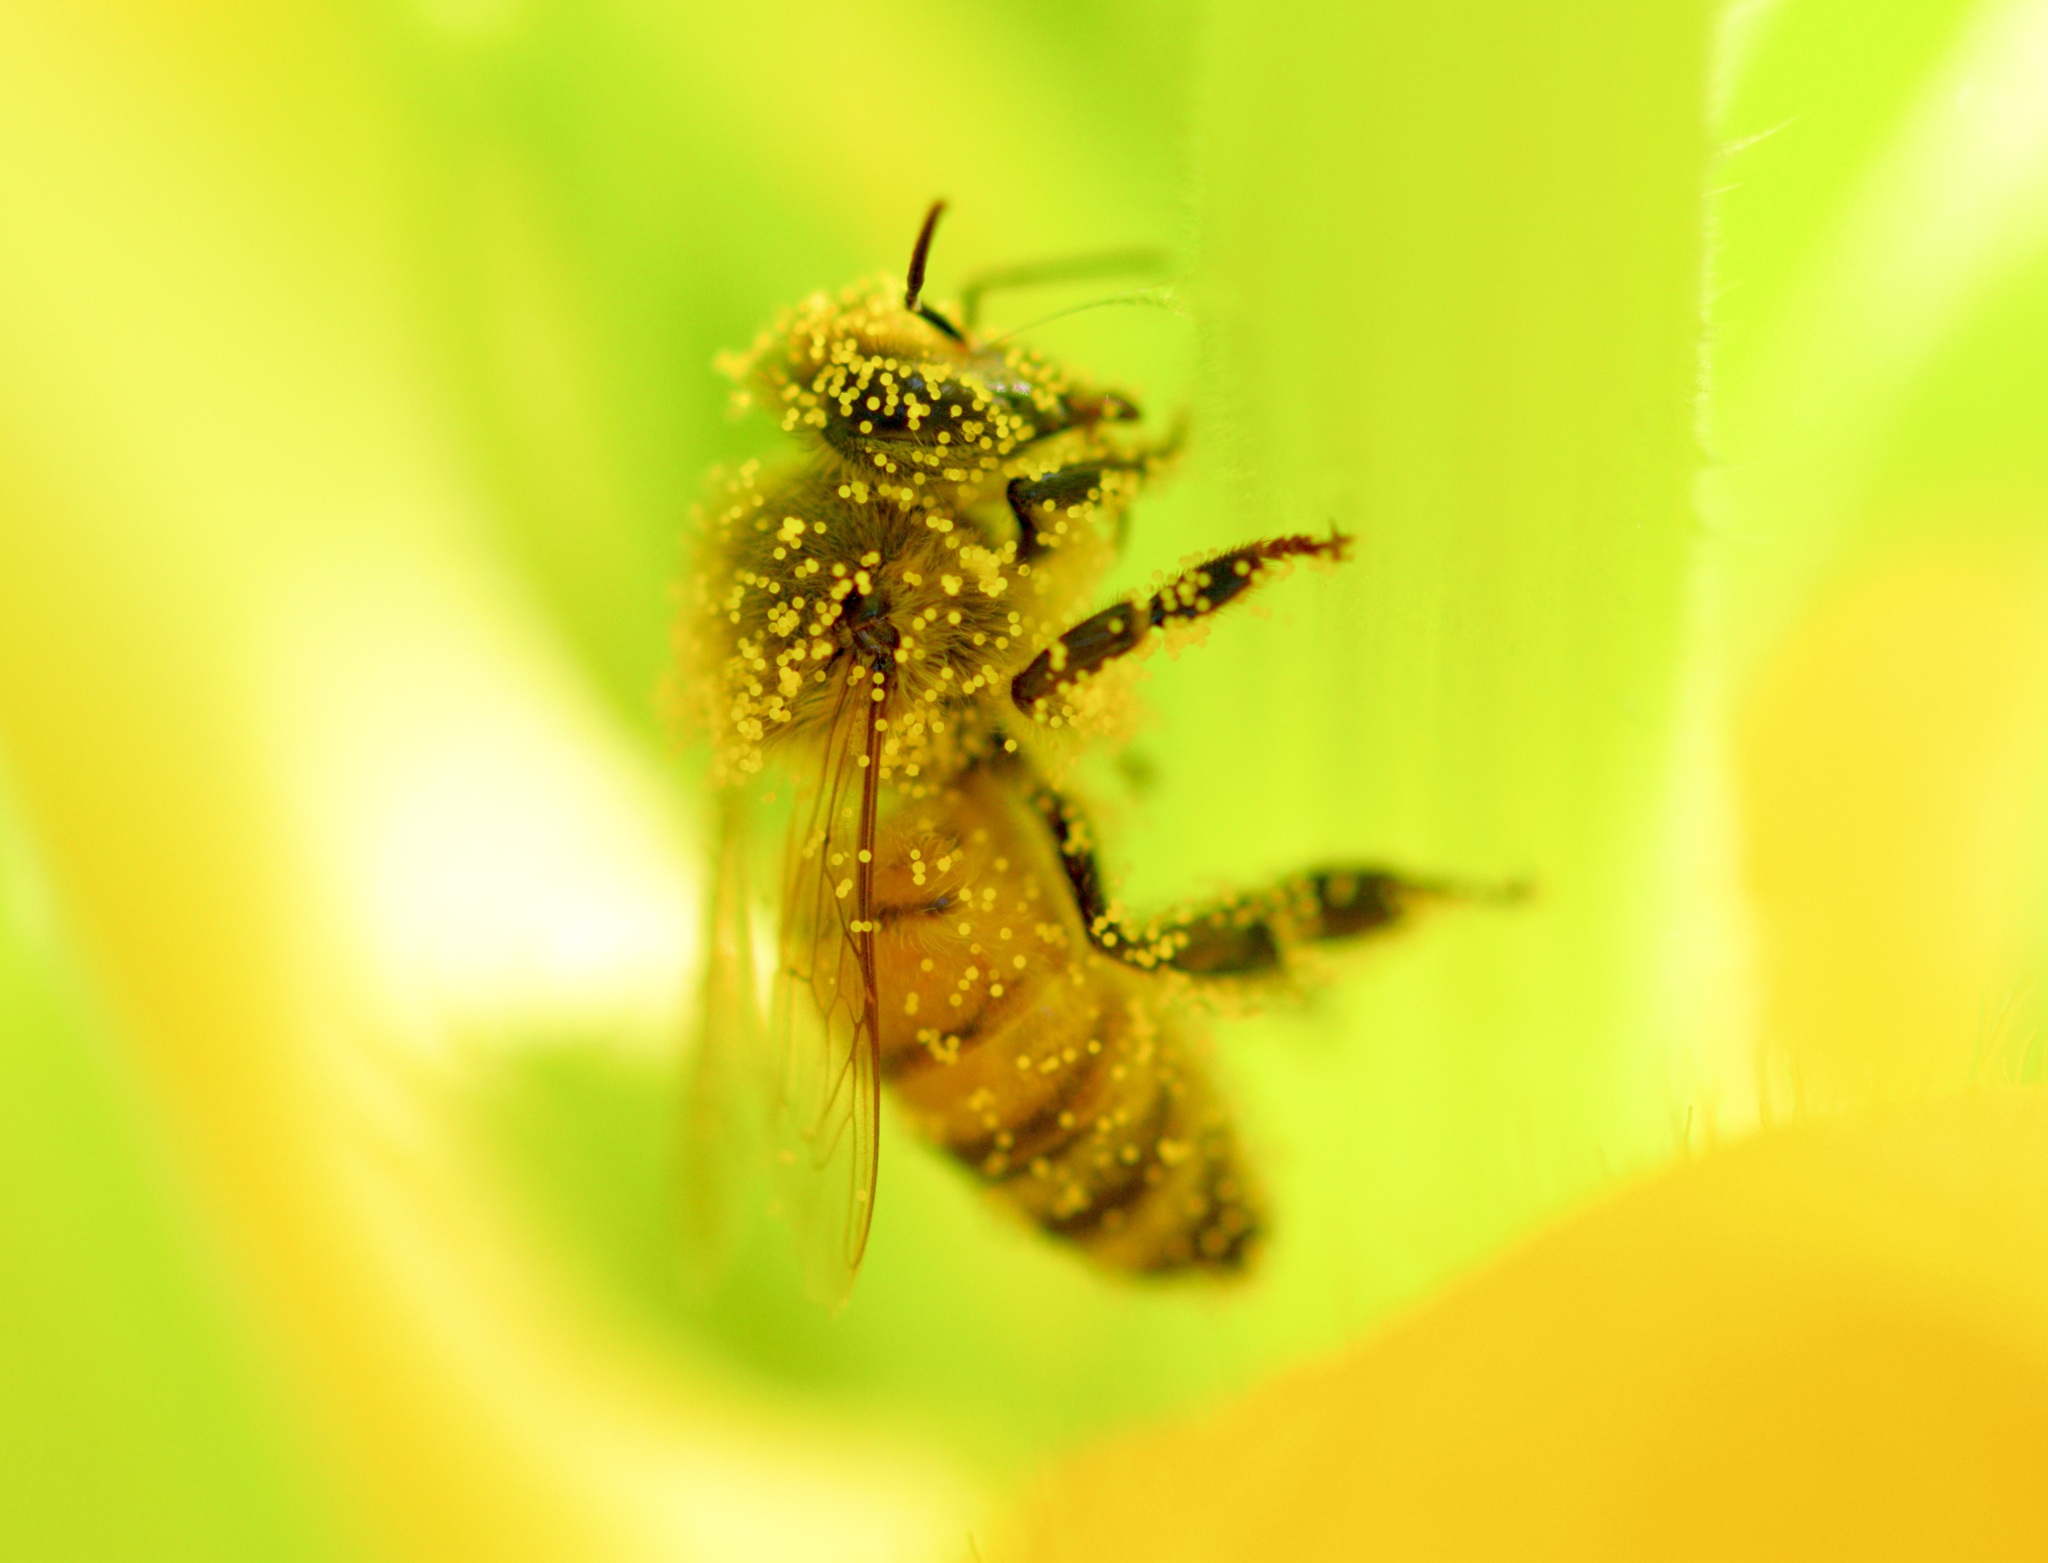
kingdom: Animalia
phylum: Arthropoda
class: Insecta
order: Hymenoptera
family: Apidae
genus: Apis
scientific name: Apis mellifera
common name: Honey bee
